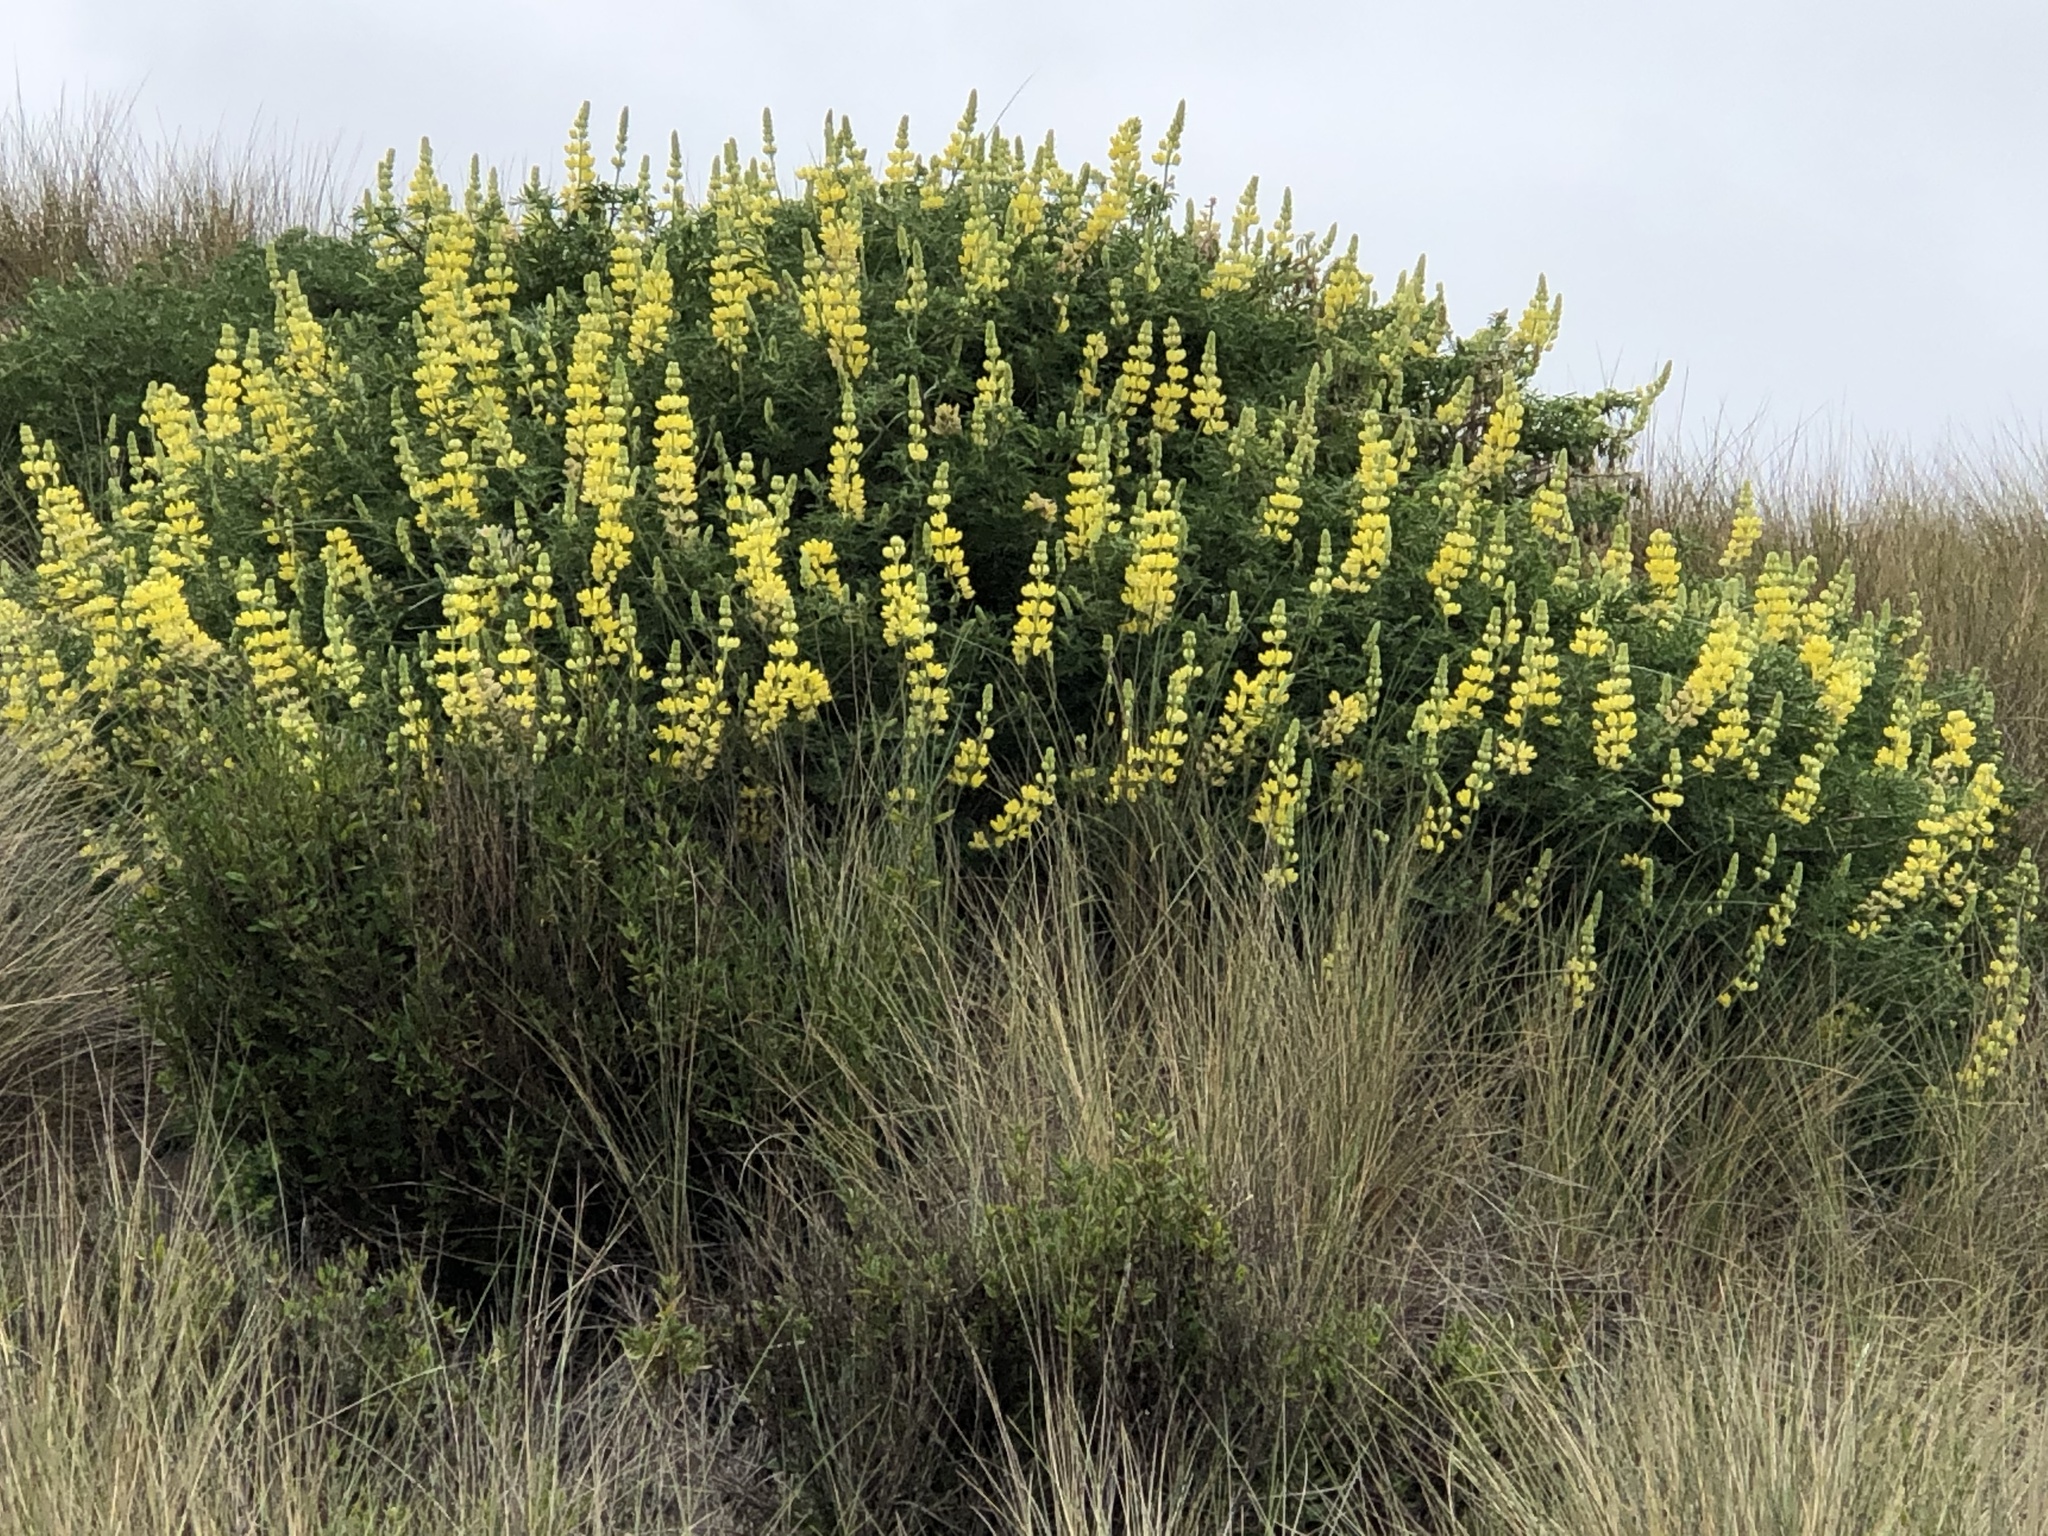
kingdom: Plantae
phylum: Tracheophyta
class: Magnoliopsida
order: Fabales
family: Fabaceae
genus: Lupinus
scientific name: Lupinus arboreus
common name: Yellow bush lupine
